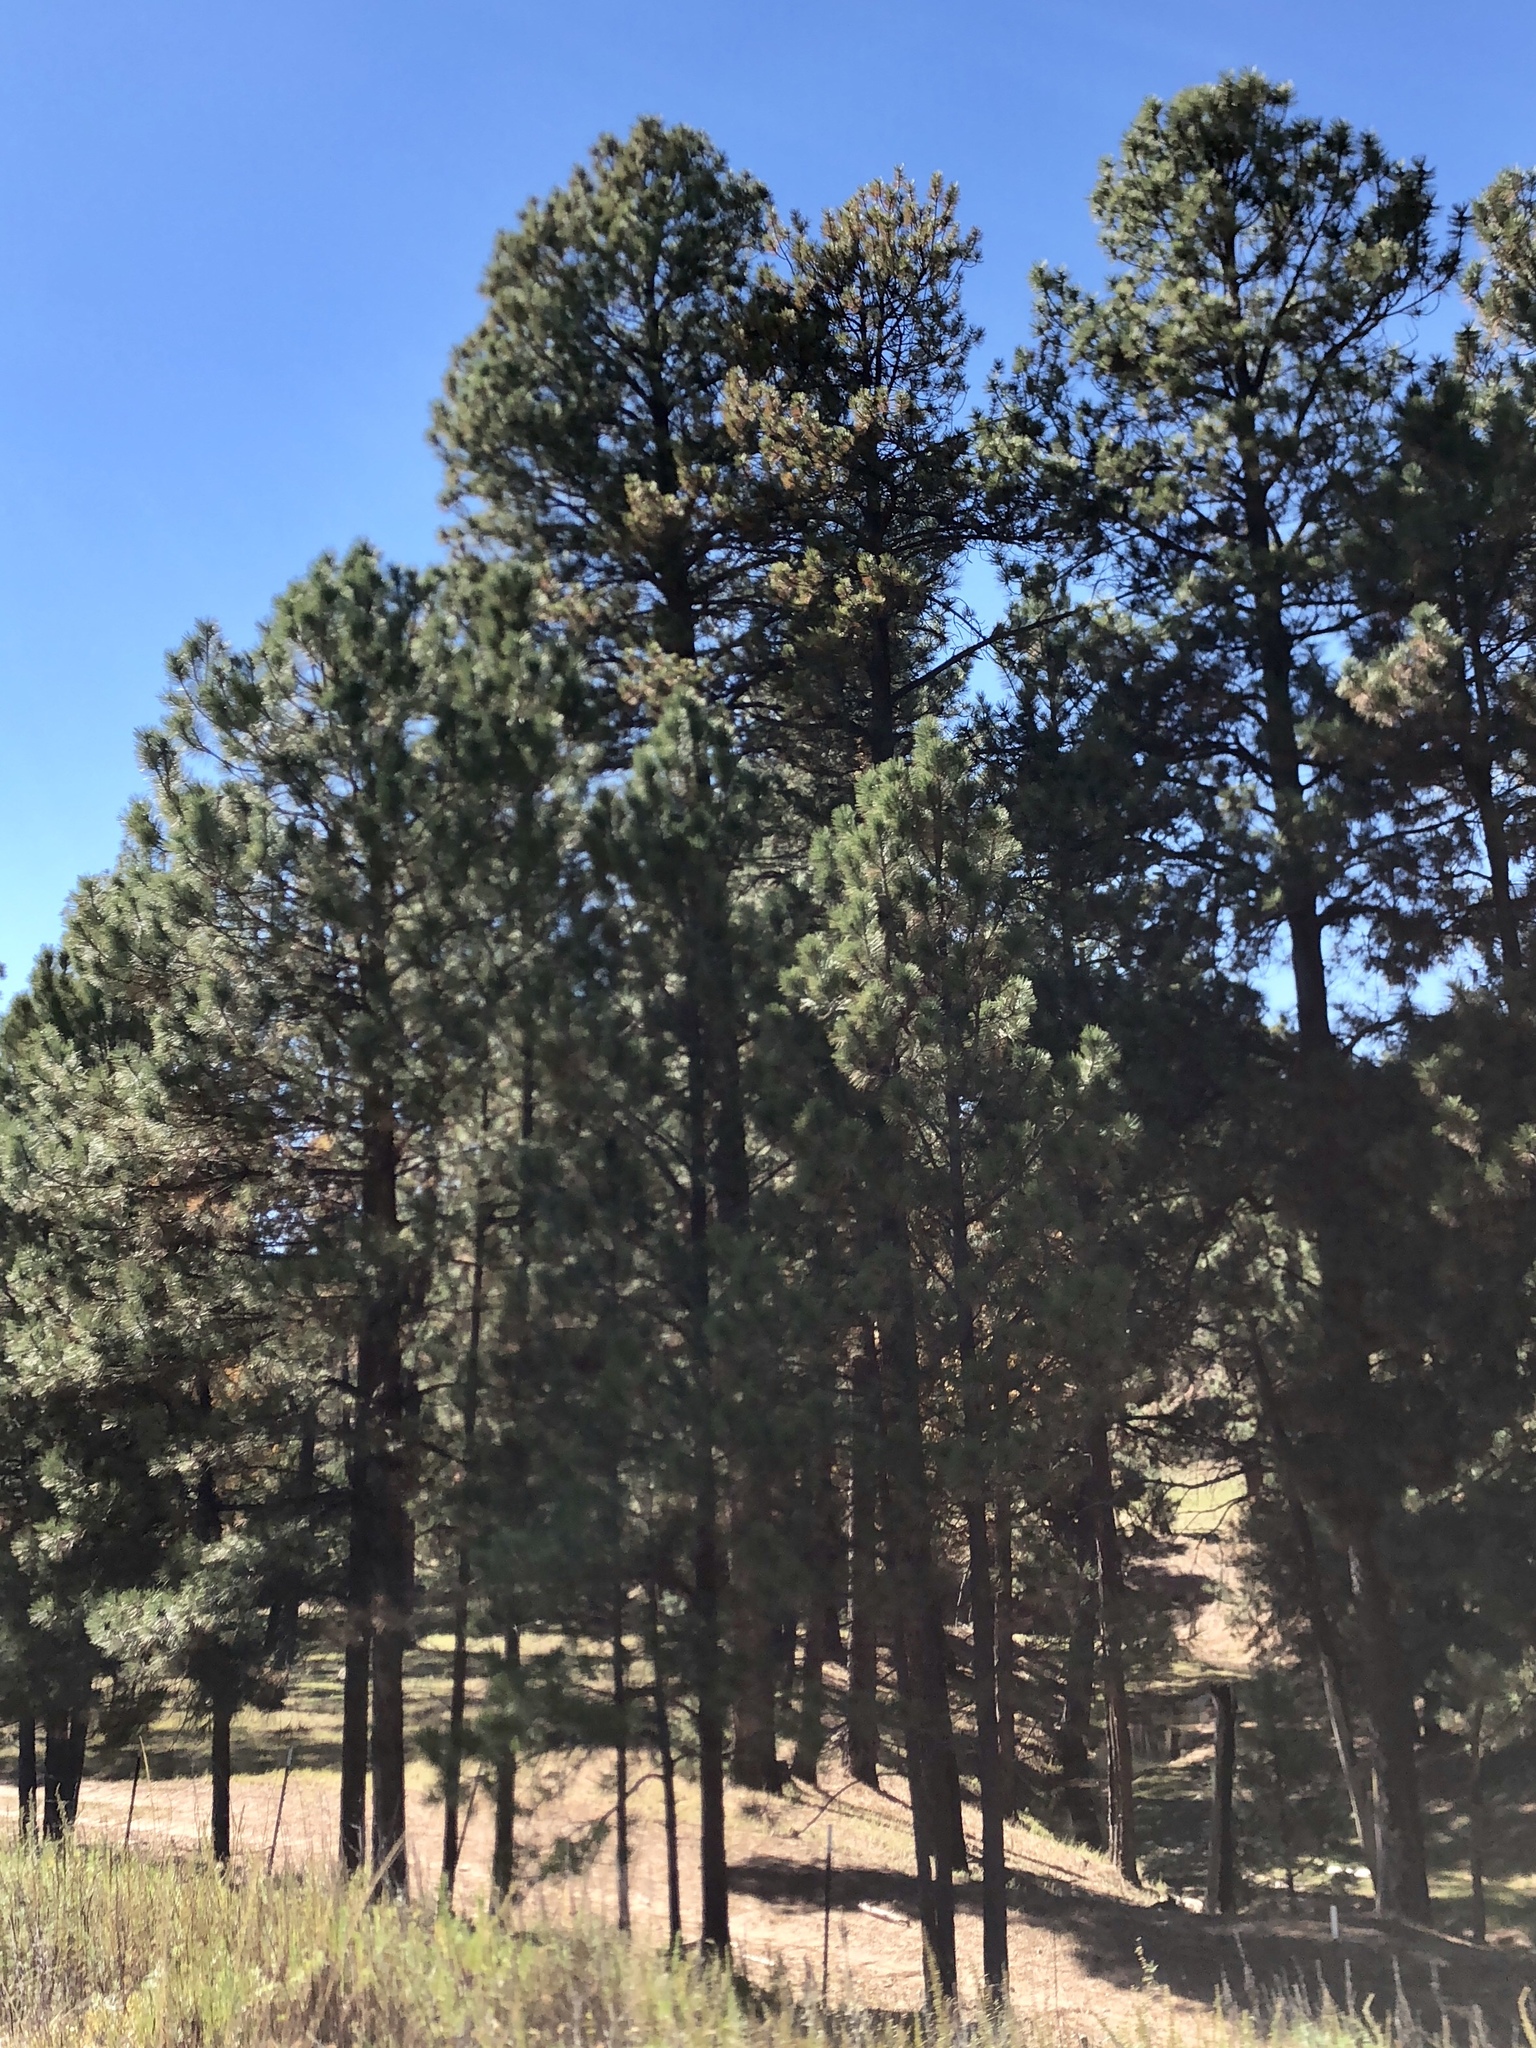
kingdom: Plantae
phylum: Tracheophyta
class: Pinopsida
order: Pinales
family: Pinaceae
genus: Pinus
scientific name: Pinus ponderosa
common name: Western yellow-pine
